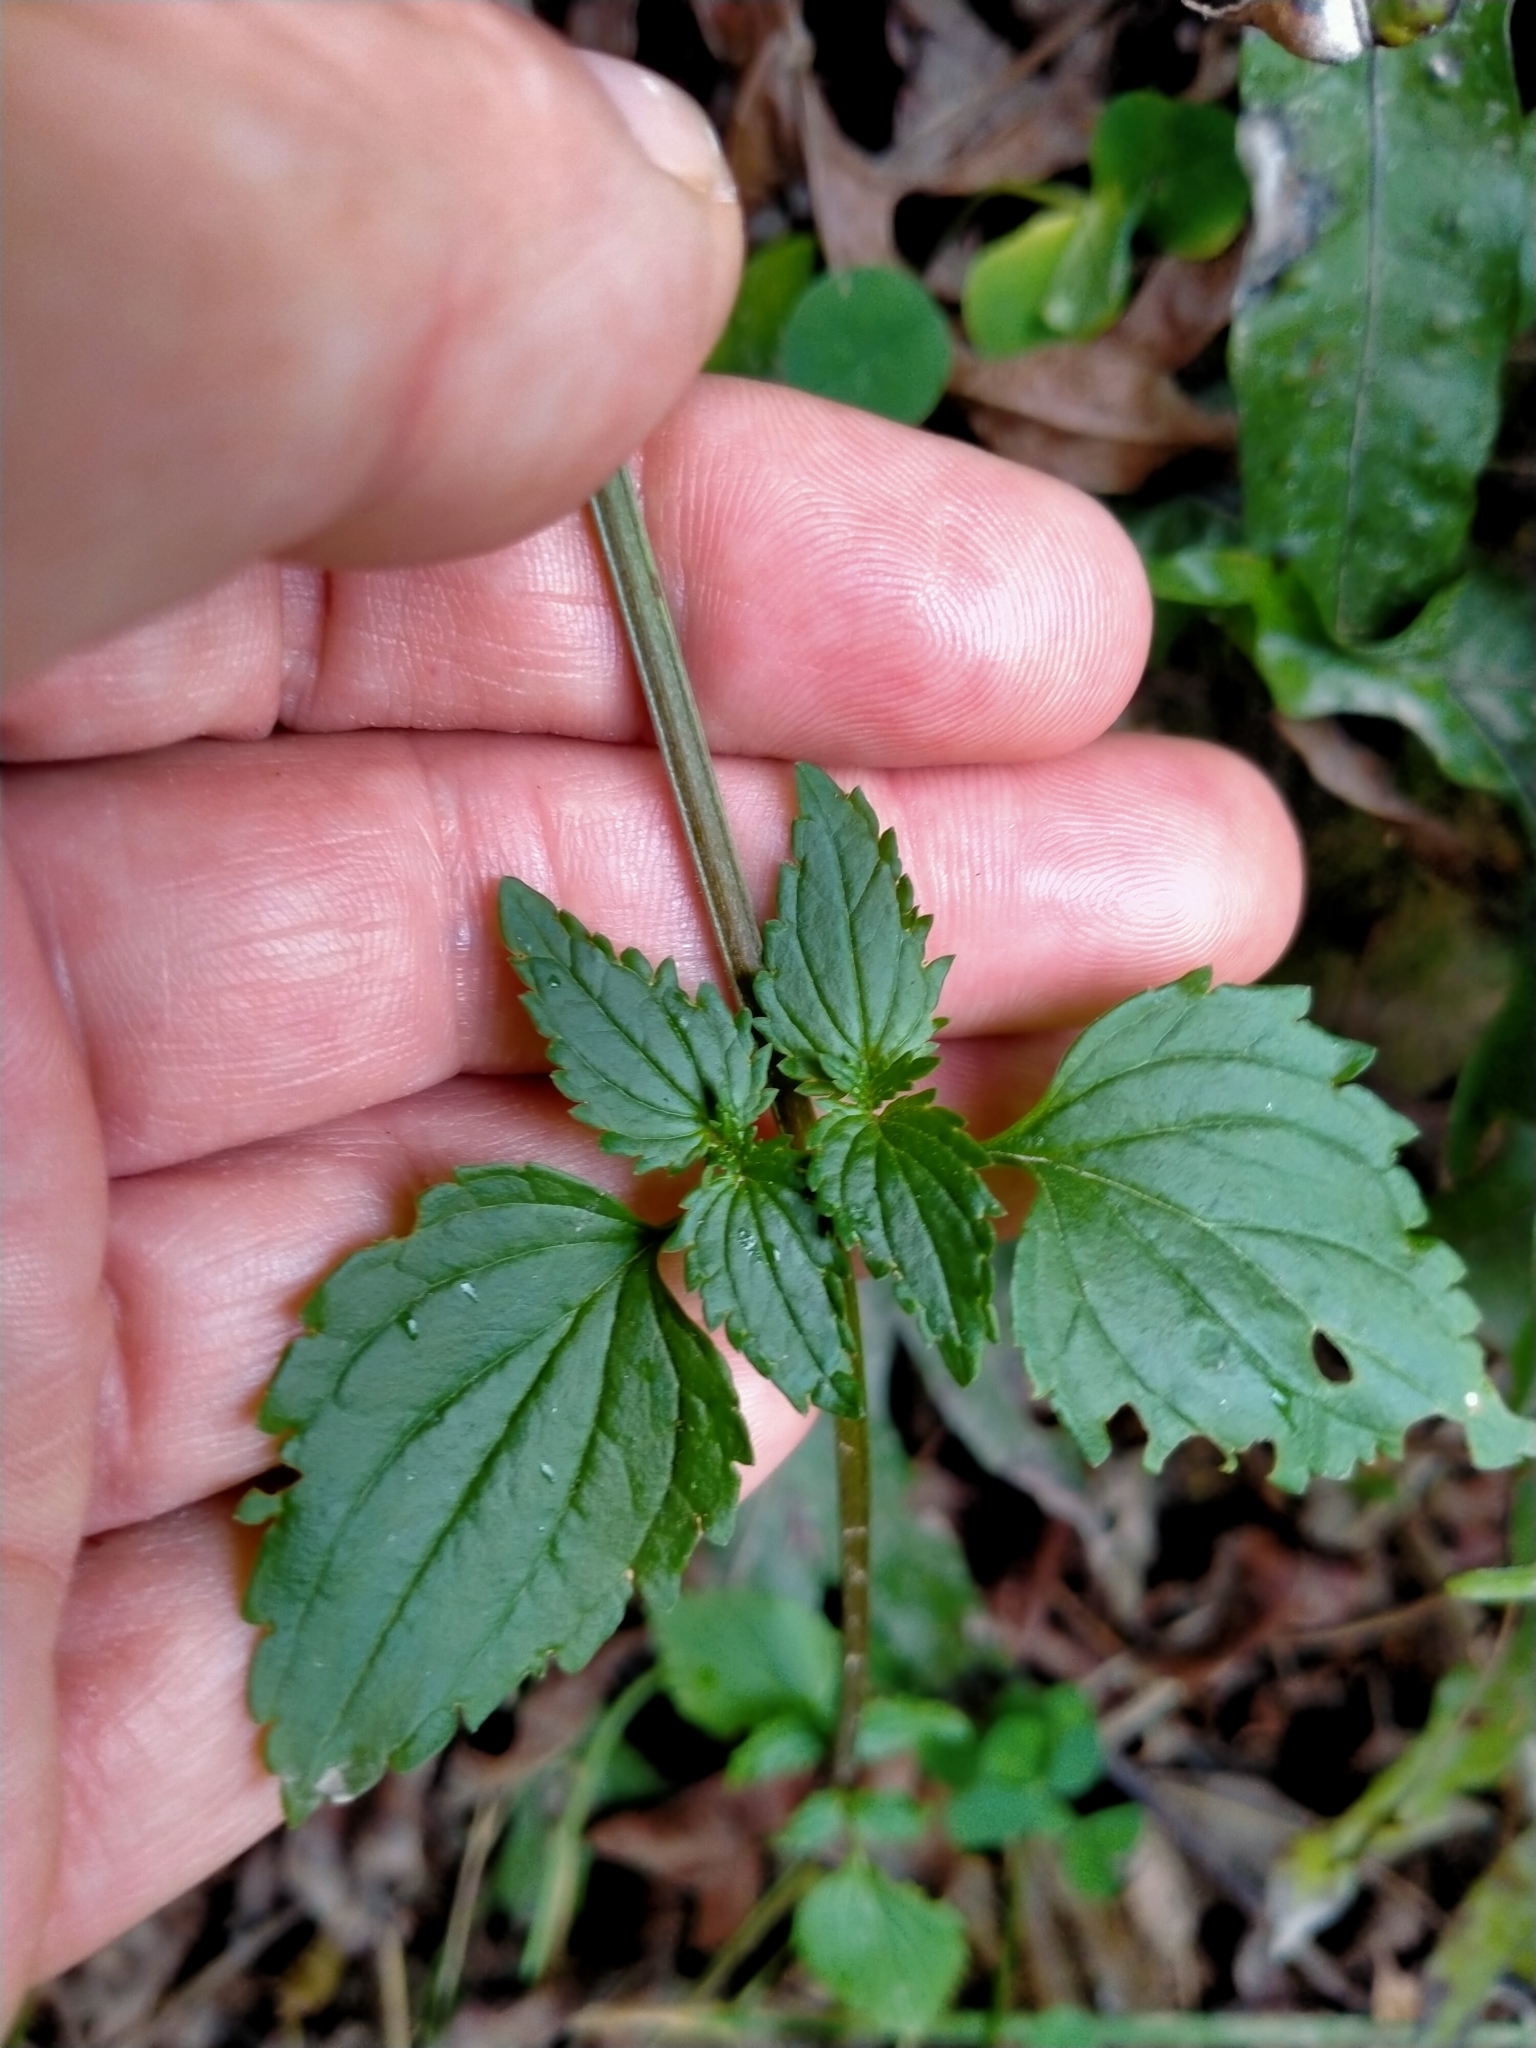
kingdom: Plantae
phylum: Tracheophyta
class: Magnoliopsida
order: Lamiales
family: Scrophulariaceae
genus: Nemesia
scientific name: Nemesia floribunda
